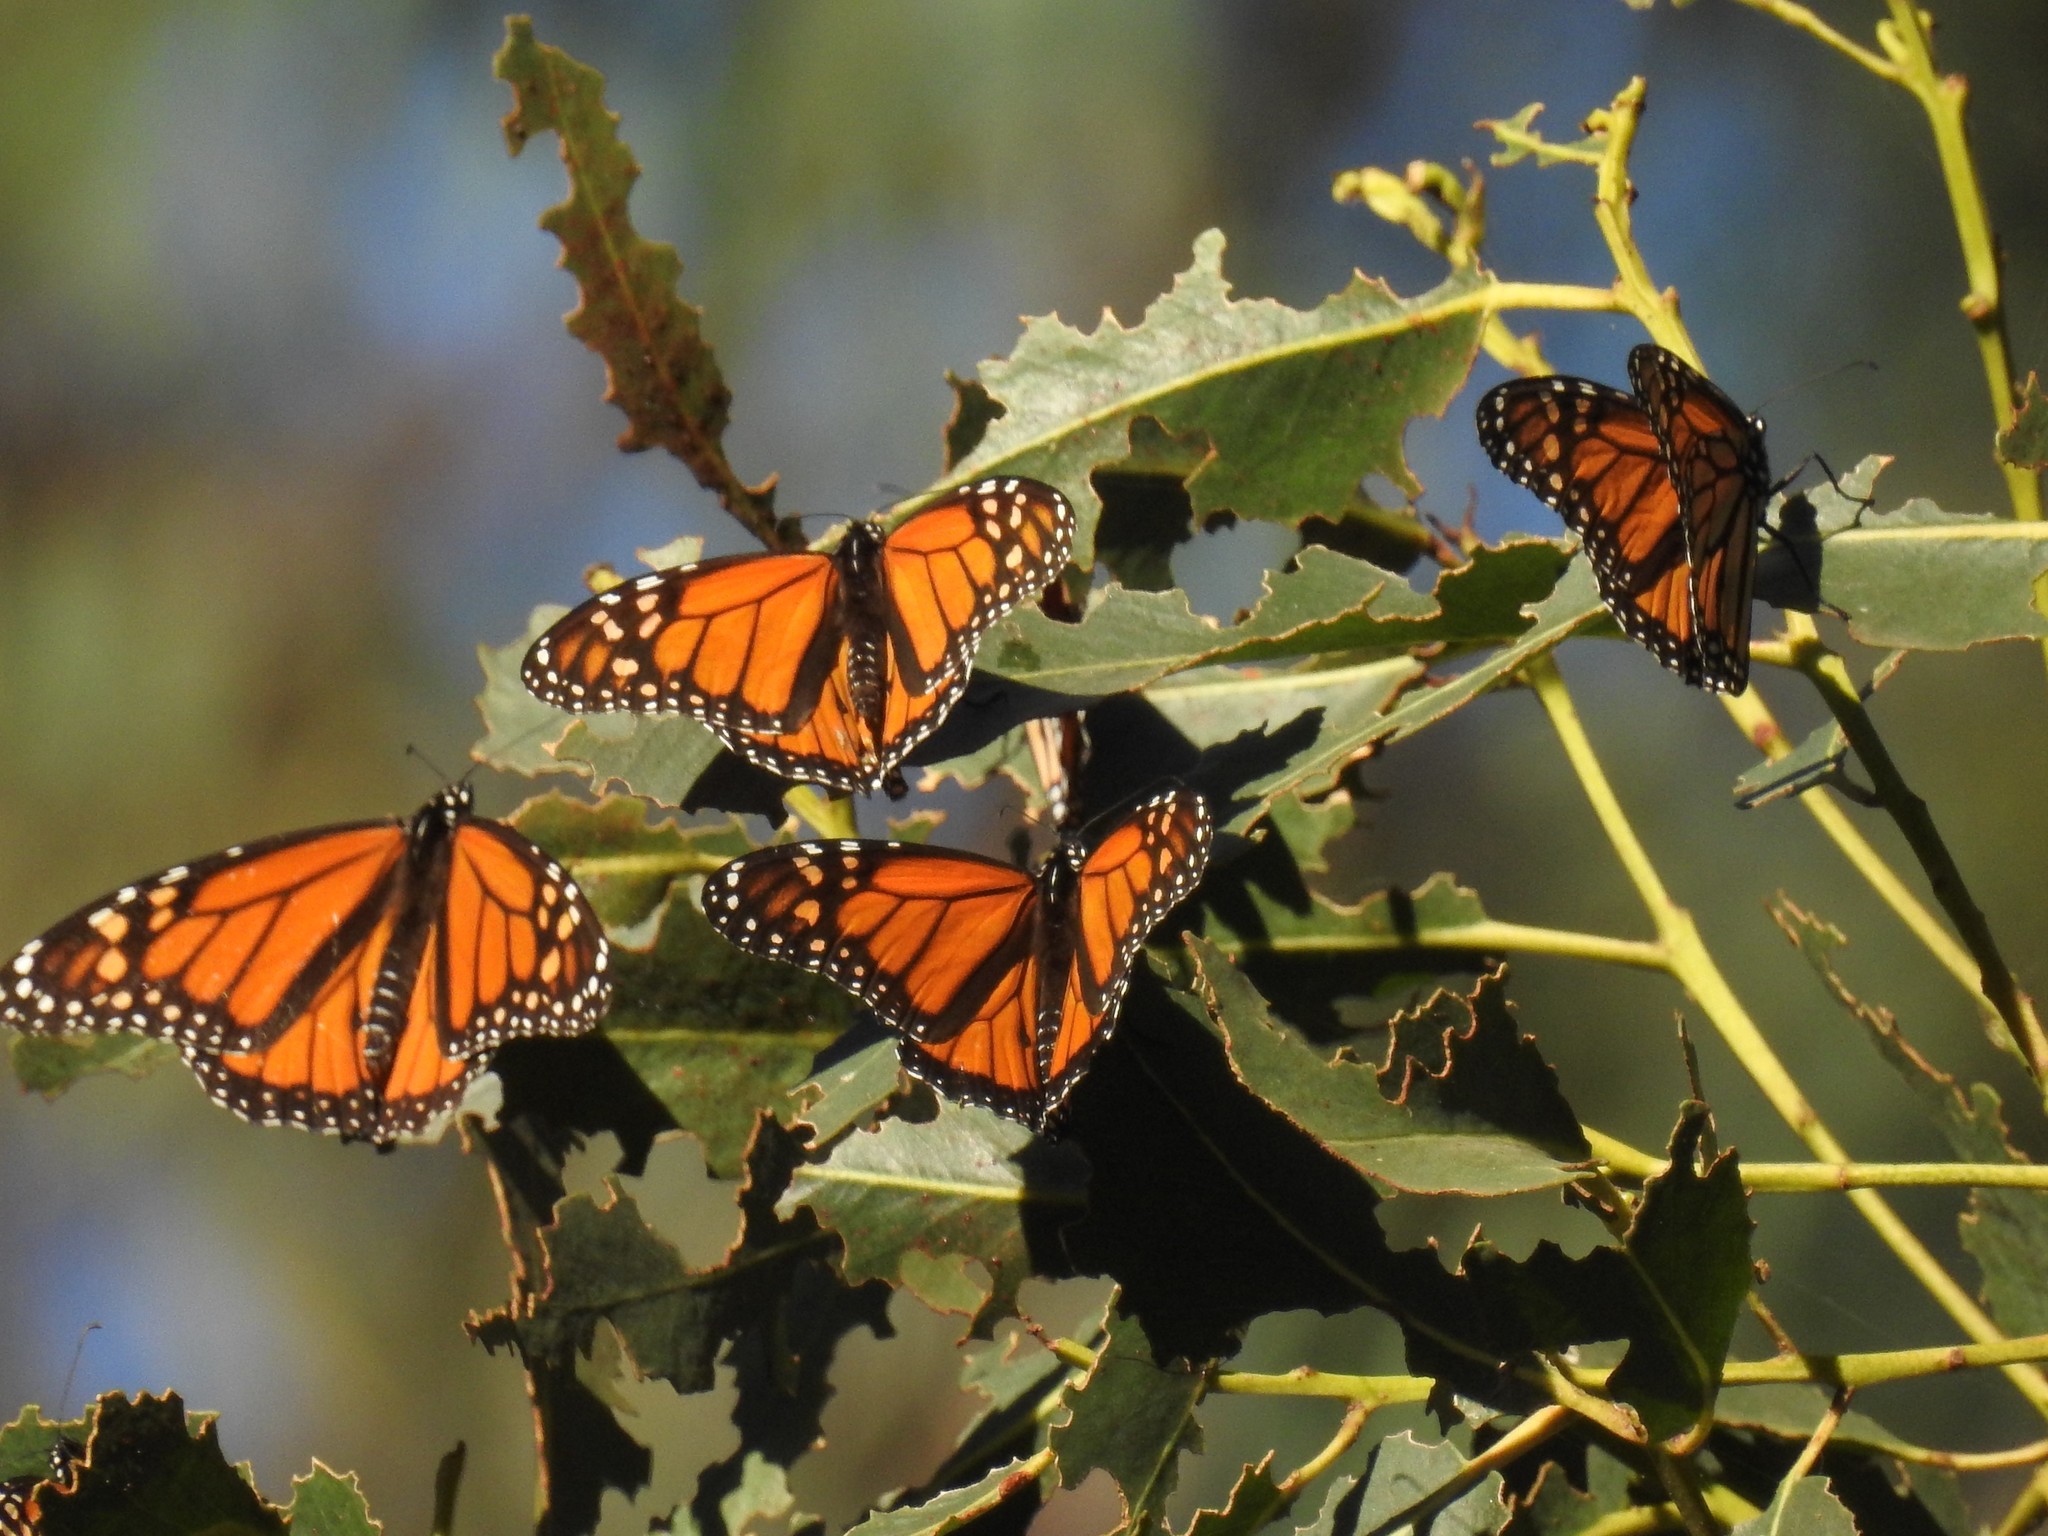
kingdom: Animalia
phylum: Arthropoda
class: Insecta
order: Lepidoptera
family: Nymphalidae
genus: Danaus
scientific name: Danaus plexippus
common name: Monarch
